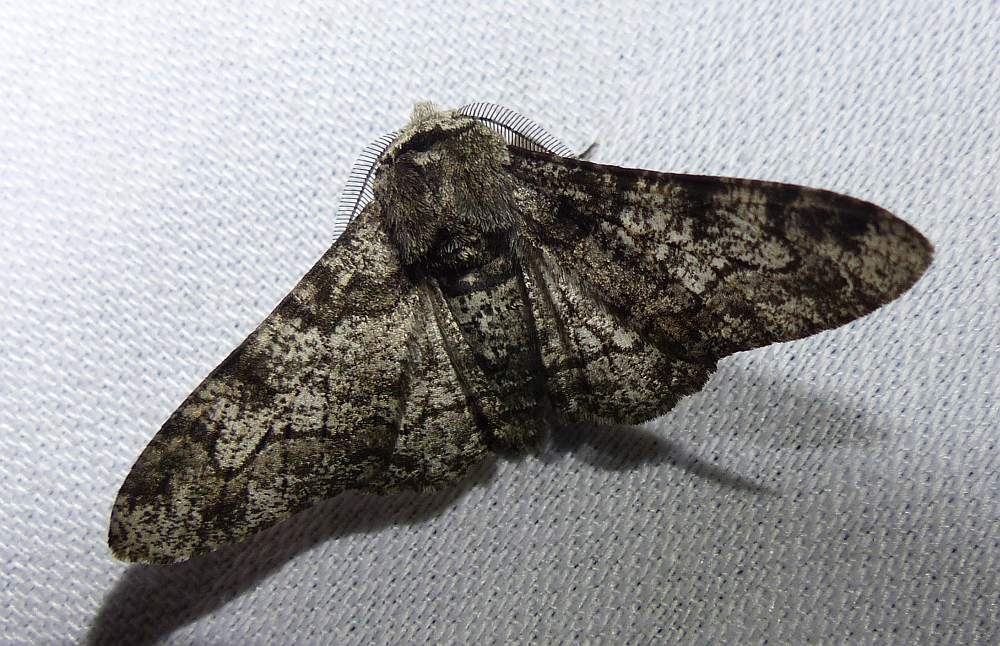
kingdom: Animalia
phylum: Arthropoda
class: Insecta
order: Lepidoptera
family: Geometridae
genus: Biston
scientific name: Biston betularia
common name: Peppered moth
